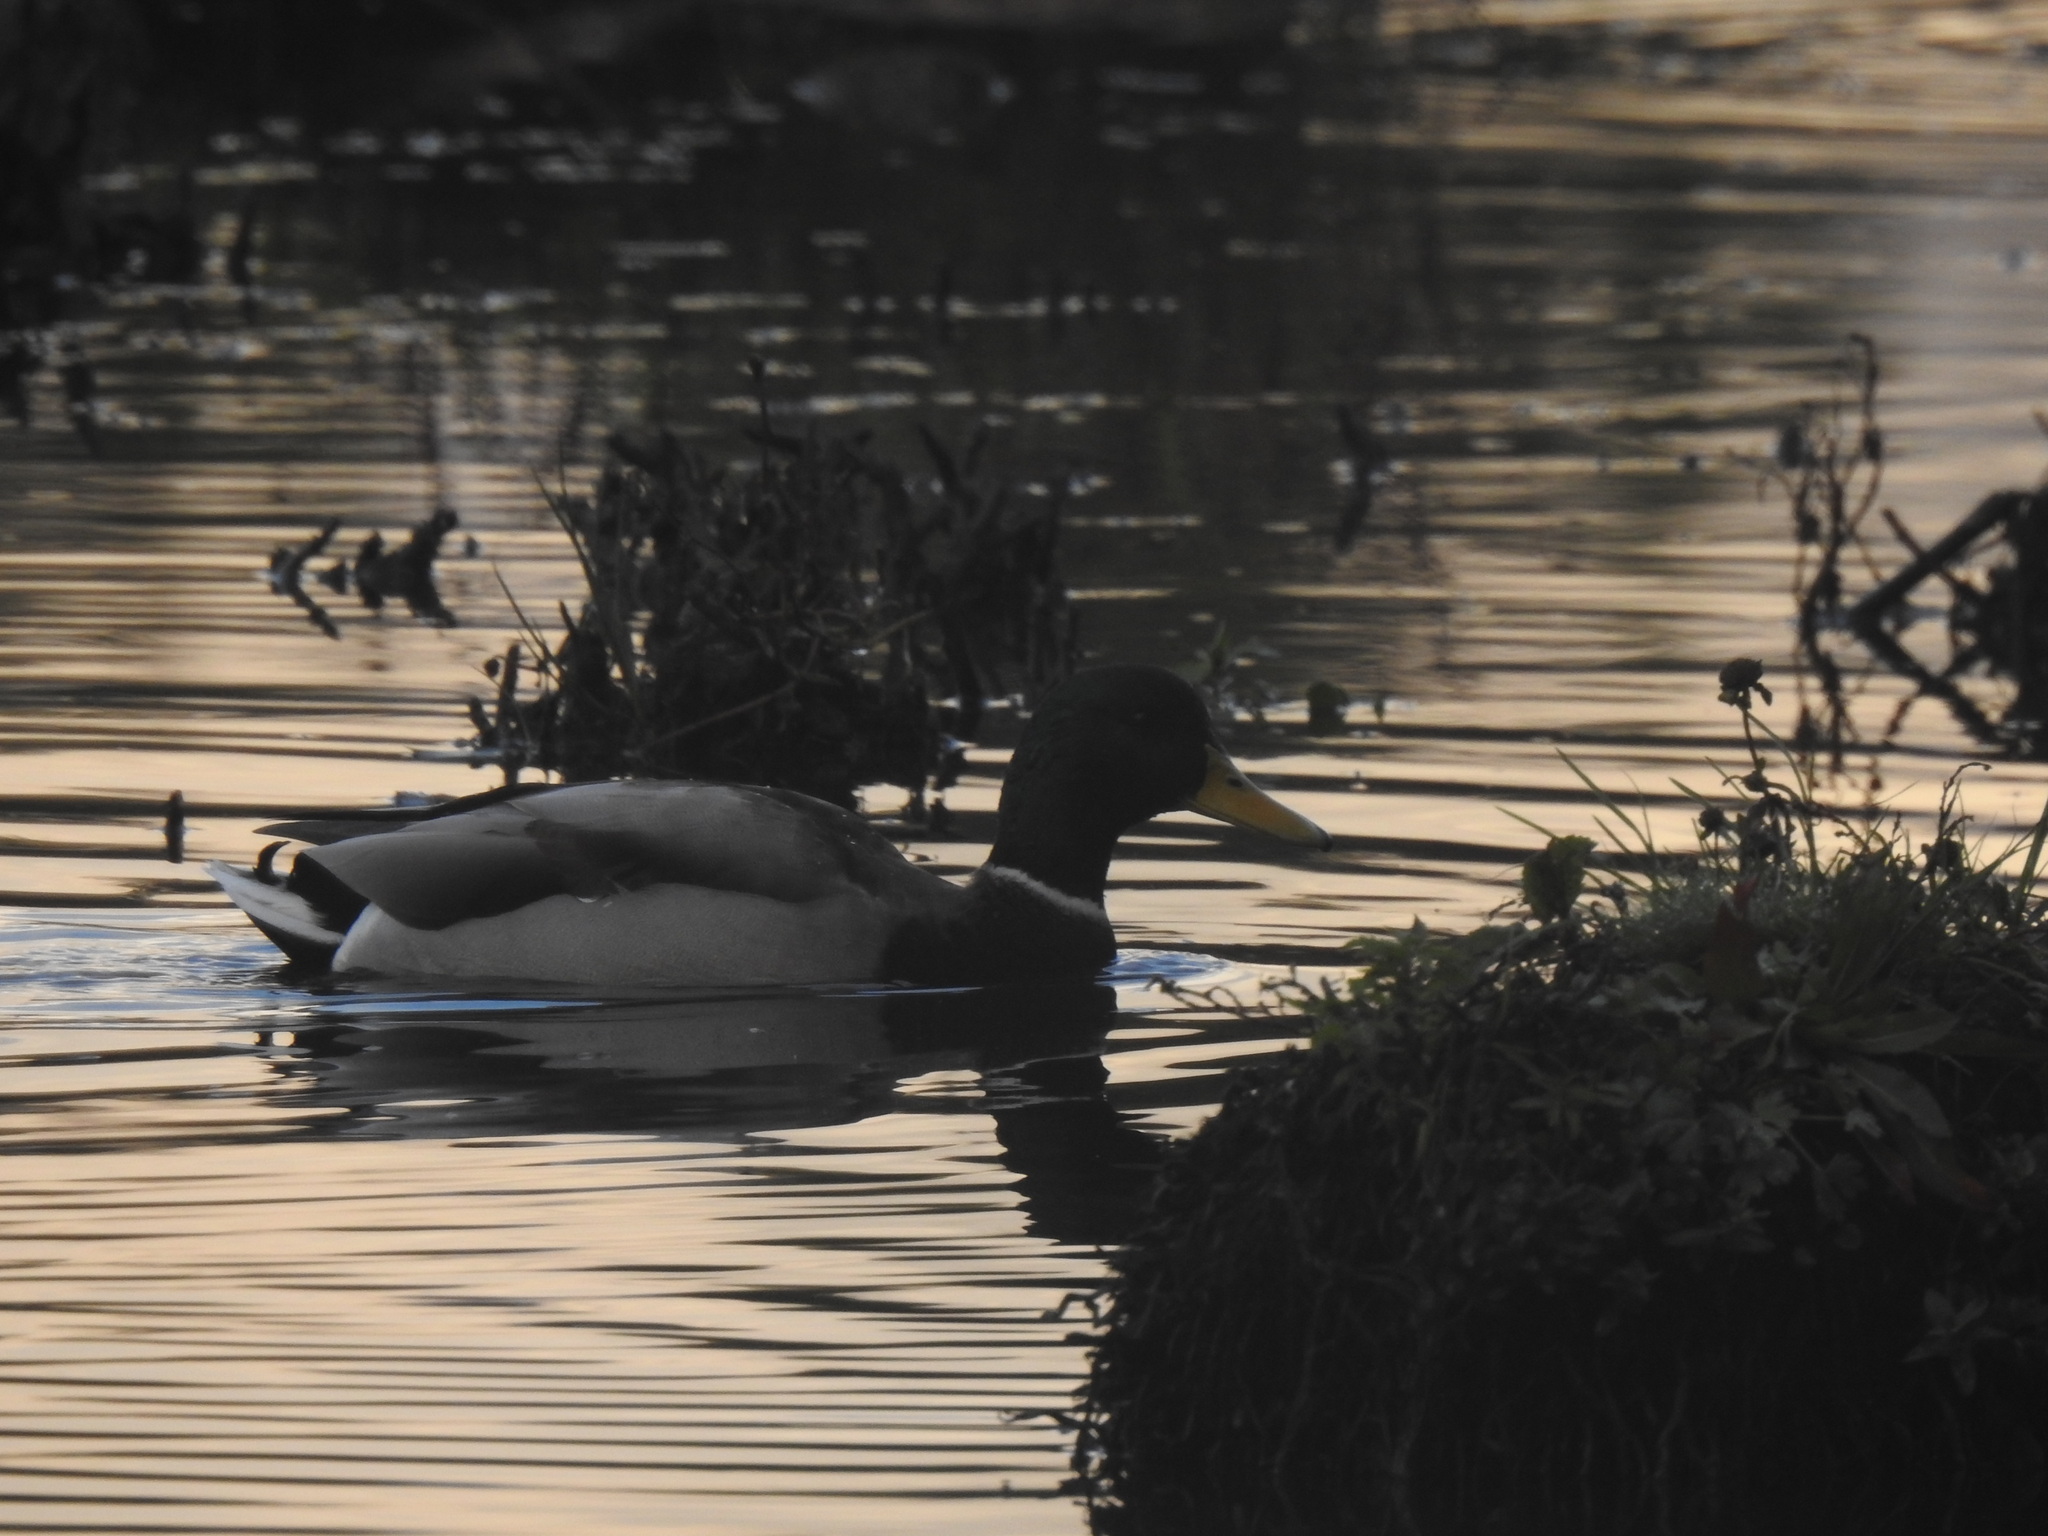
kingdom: Animalia
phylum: Chordata
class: Aves
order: Anseriformes
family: Anatidae
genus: Anas
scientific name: Anas platyrhynchos
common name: Mallard
